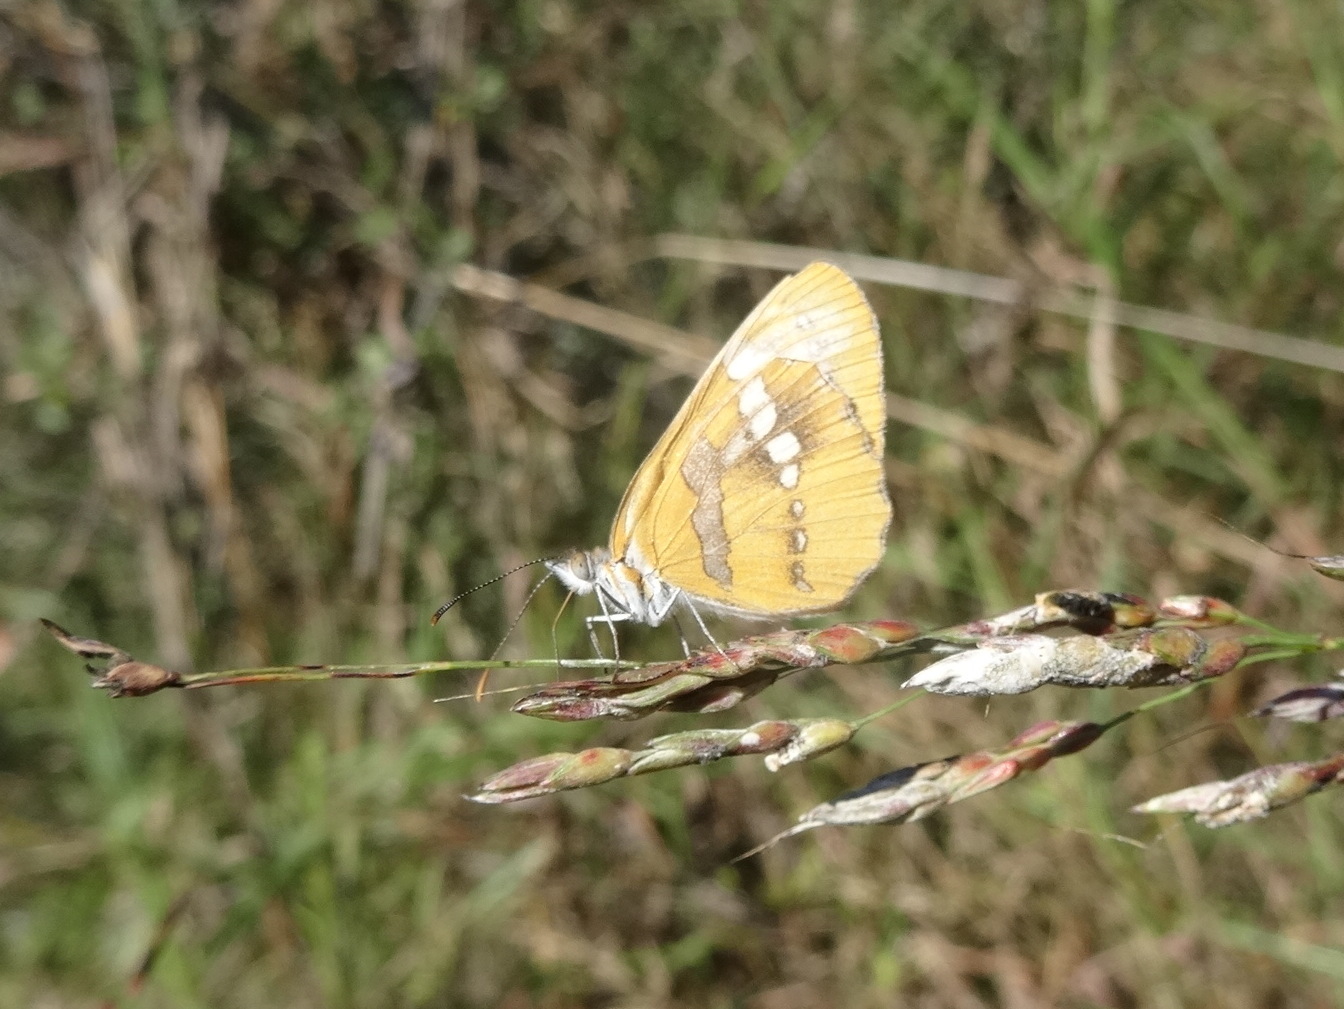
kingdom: Animalia
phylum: Arthropoda
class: Insecta
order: Lepidoptera
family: Nymphalidae
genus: Mestra
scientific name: Mestra amymone
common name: Common mestra
